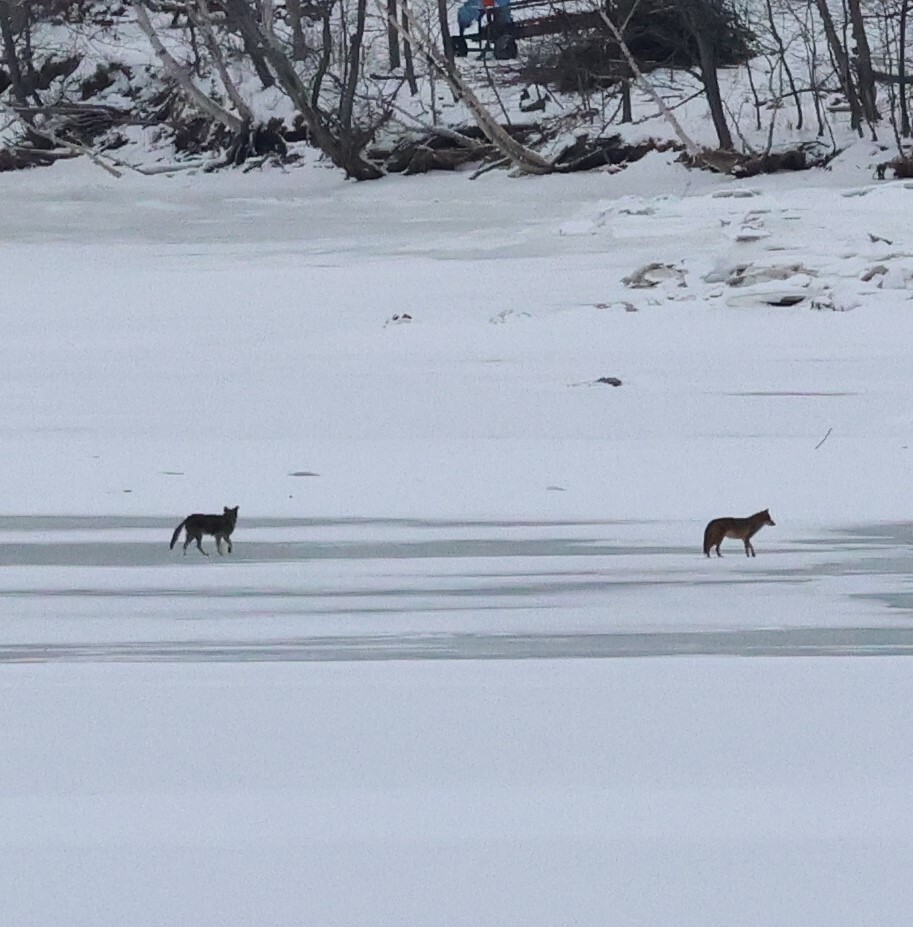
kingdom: Animalia
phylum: Chordata
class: Mammalia
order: Carnivora
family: Canidae
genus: Canis
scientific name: Canis latrans
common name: Coyote
